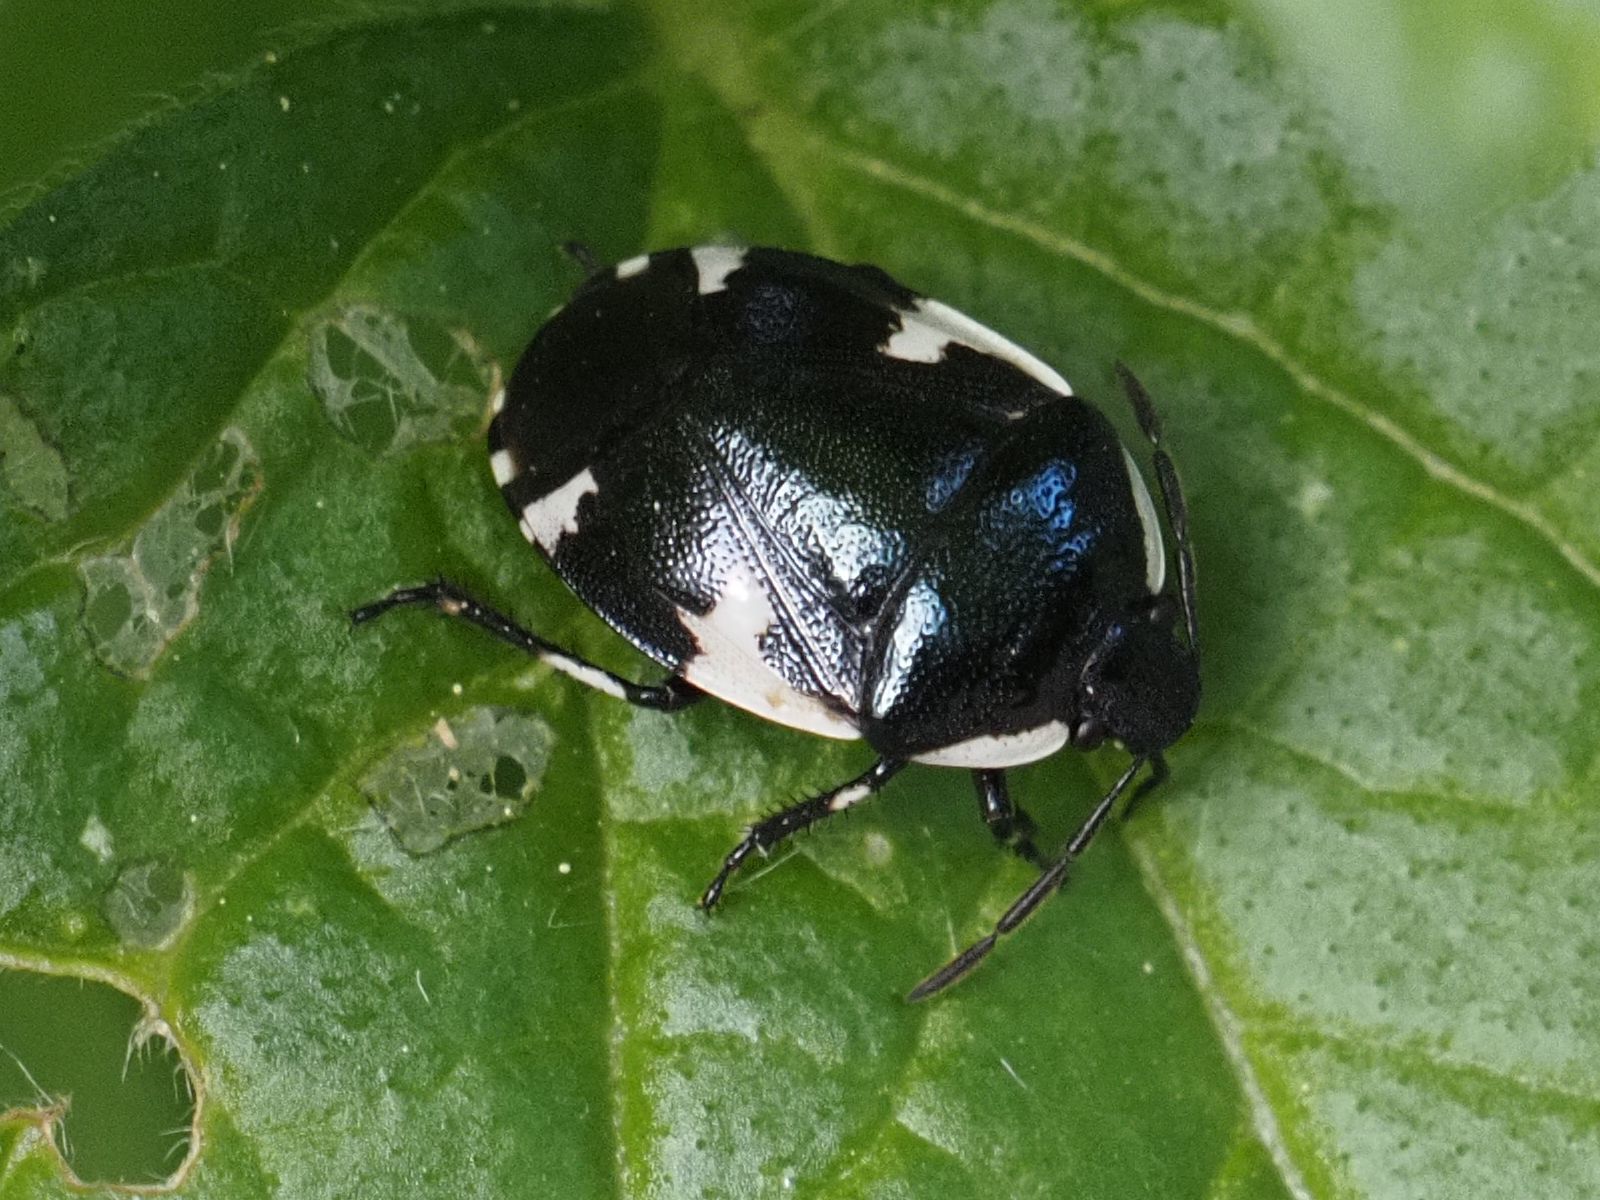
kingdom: Animalia
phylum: Arthropoda
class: Insecta
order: Hemiptera
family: Cydnidae
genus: Tritomegas
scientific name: Tritomegas sexmaculatus
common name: Rambur's pied shieldbug
